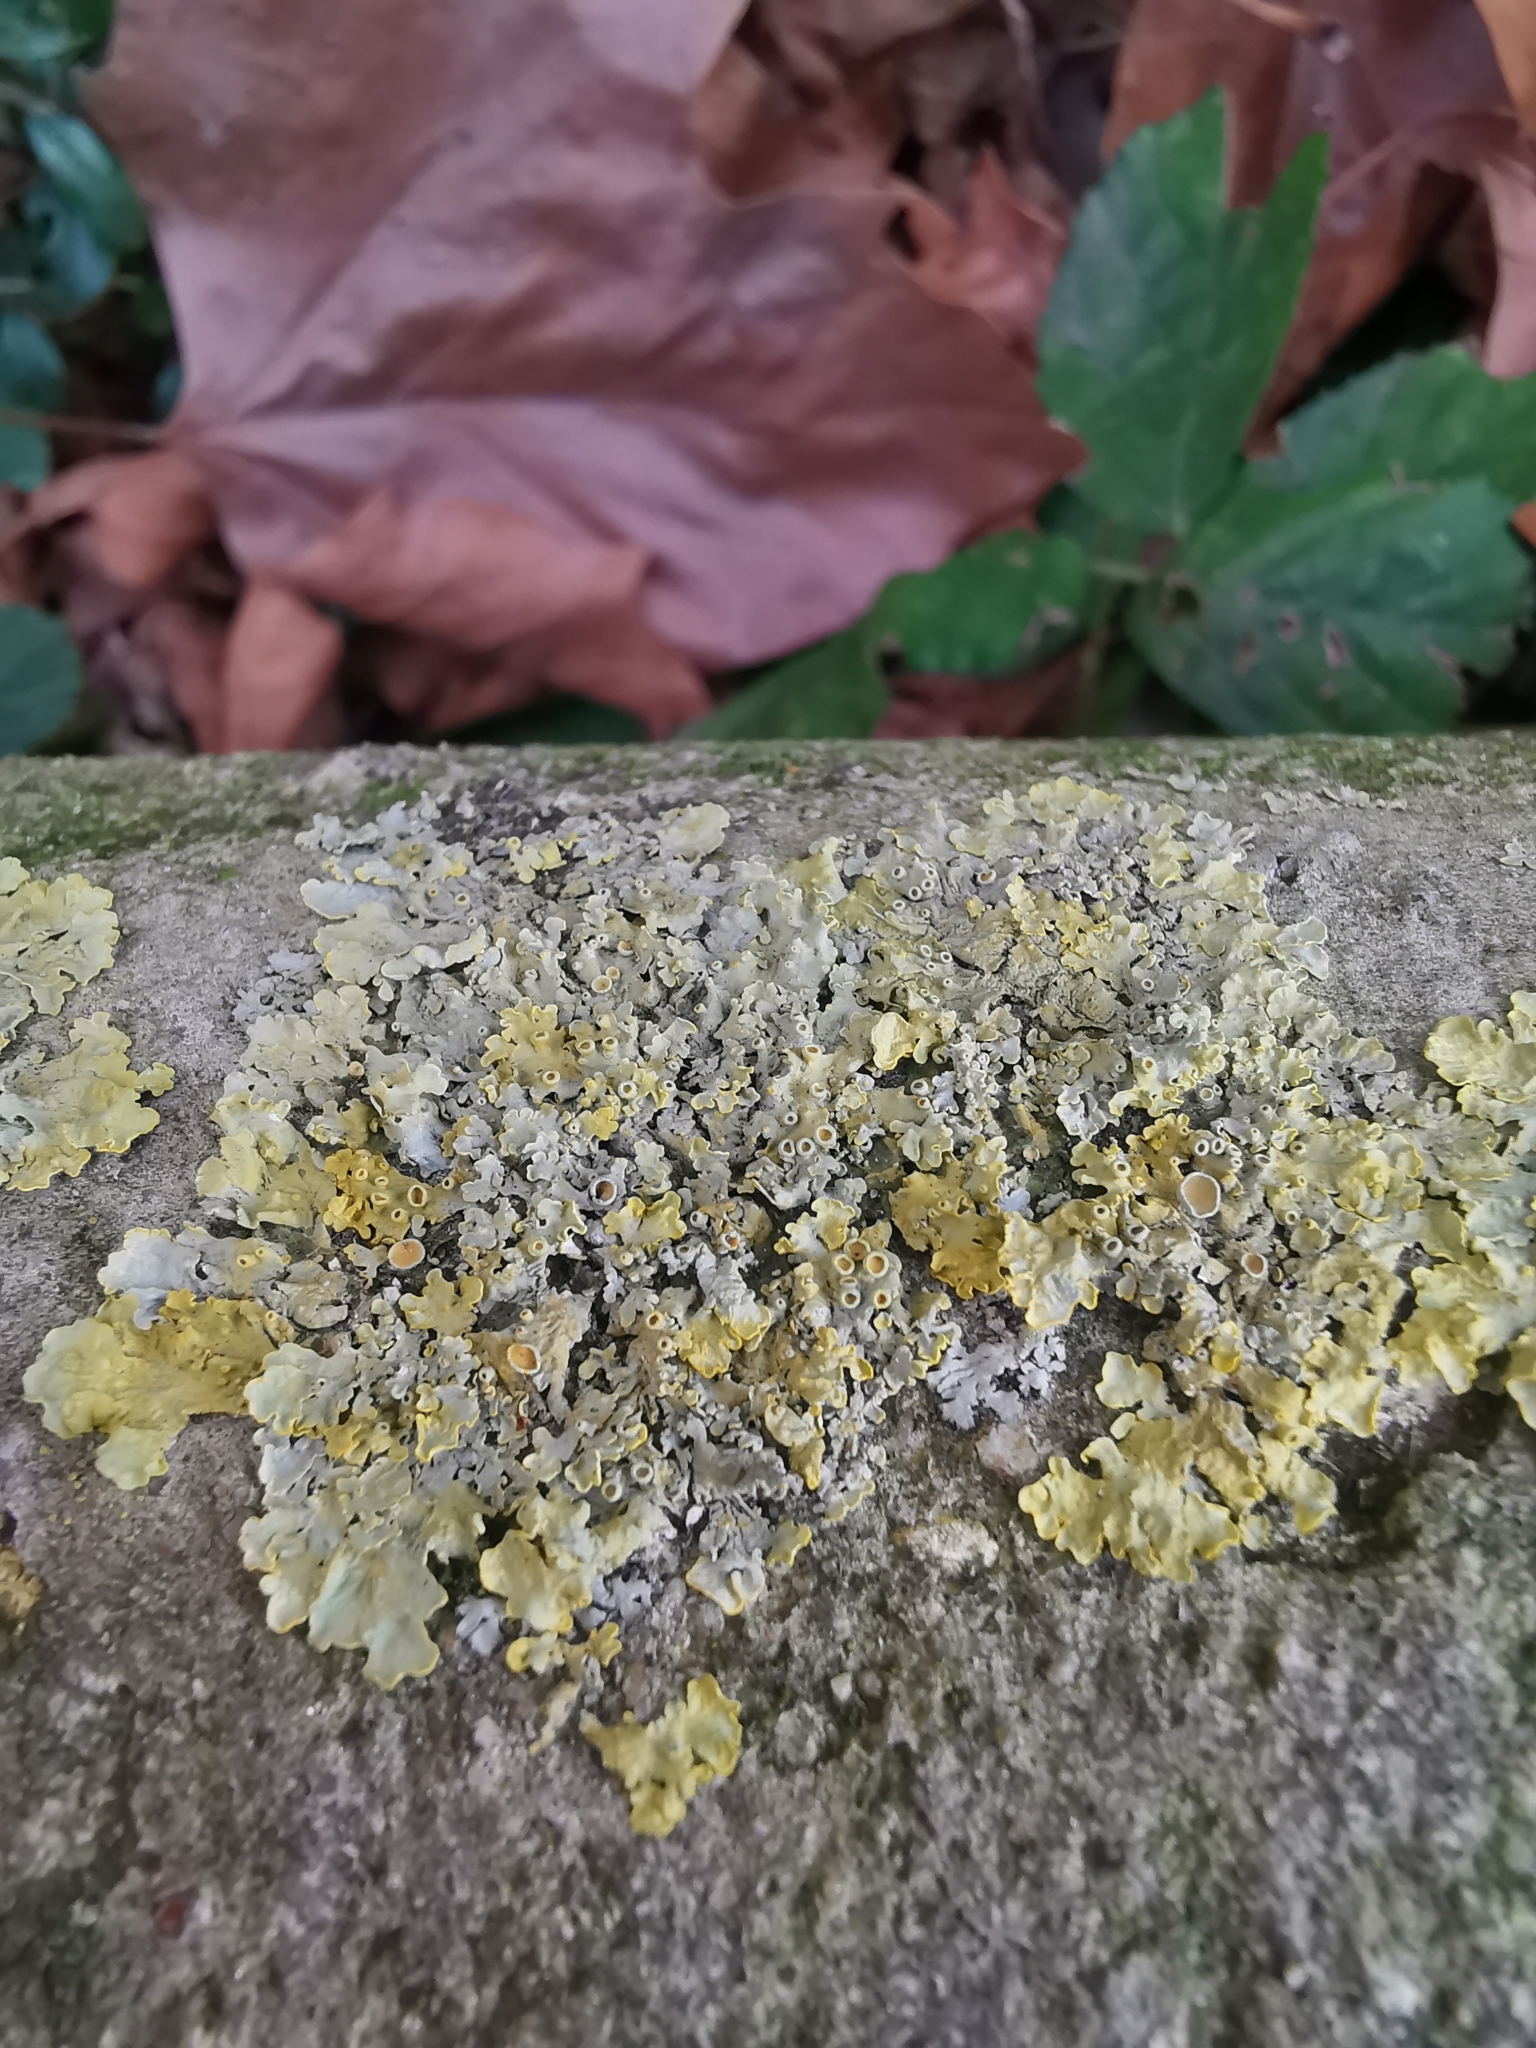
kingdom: Fungi
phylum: Ascomycota
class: Lecanoromycetes
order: Teloschistales
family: Teloschistaceae
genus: Xanthoria
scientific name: Xanthoria parietina
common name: Common orange lichen
